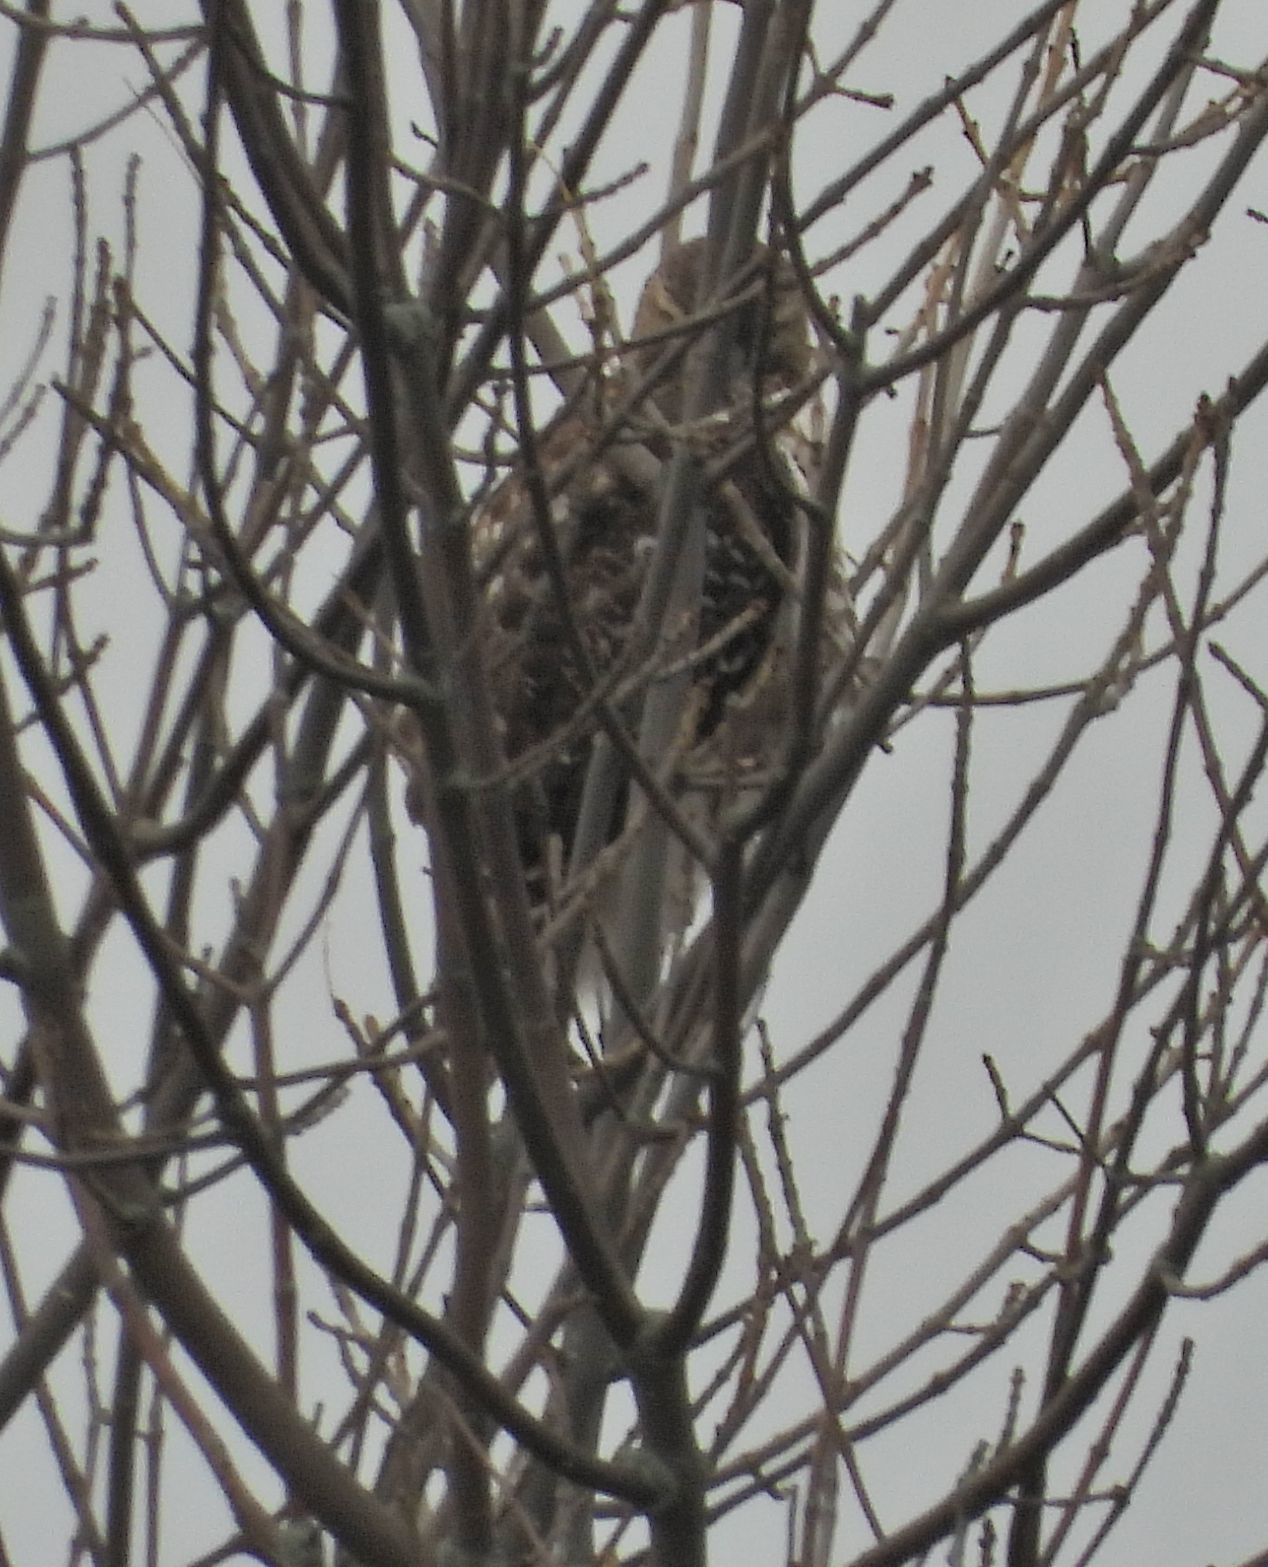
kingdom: Animalia
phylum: Chordata
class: Aves
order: Accipitriformes
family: Accipitridae
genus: Buteo
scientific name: Buteo jamaicensis
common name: Red-tailed hawk
